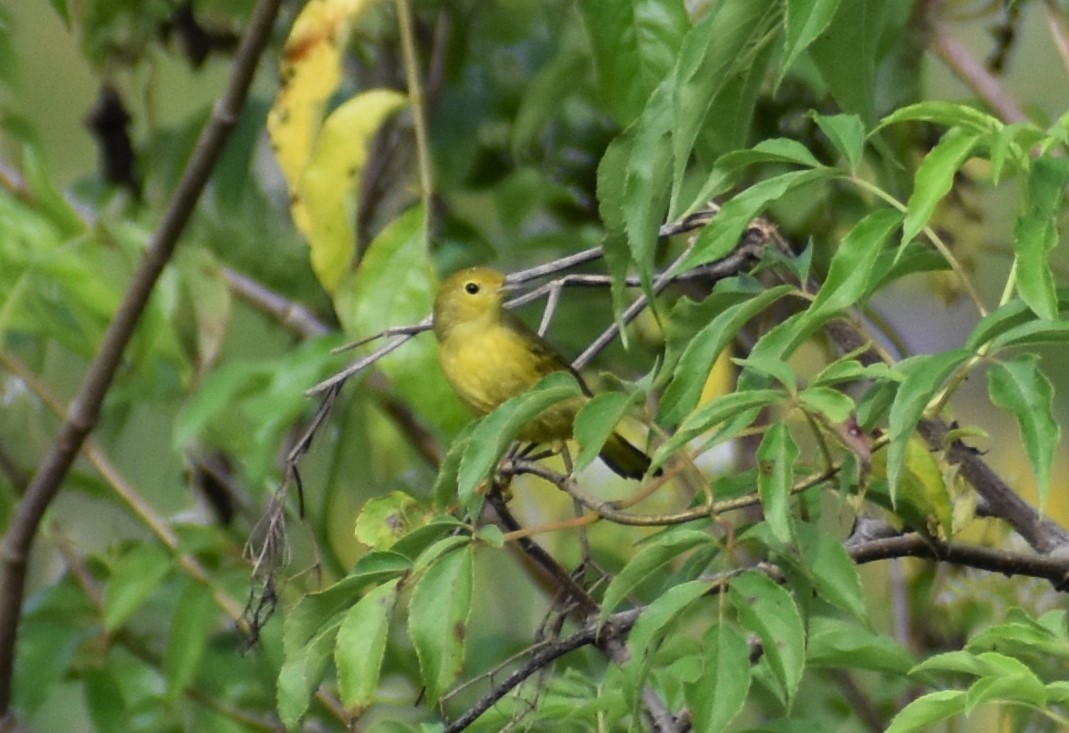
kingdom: Animalia
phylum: Chordata
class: Aves
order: Passeriformes
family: Parulidae
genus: Setophaga
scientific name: Setophaga petechia
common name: Yellow warbler
